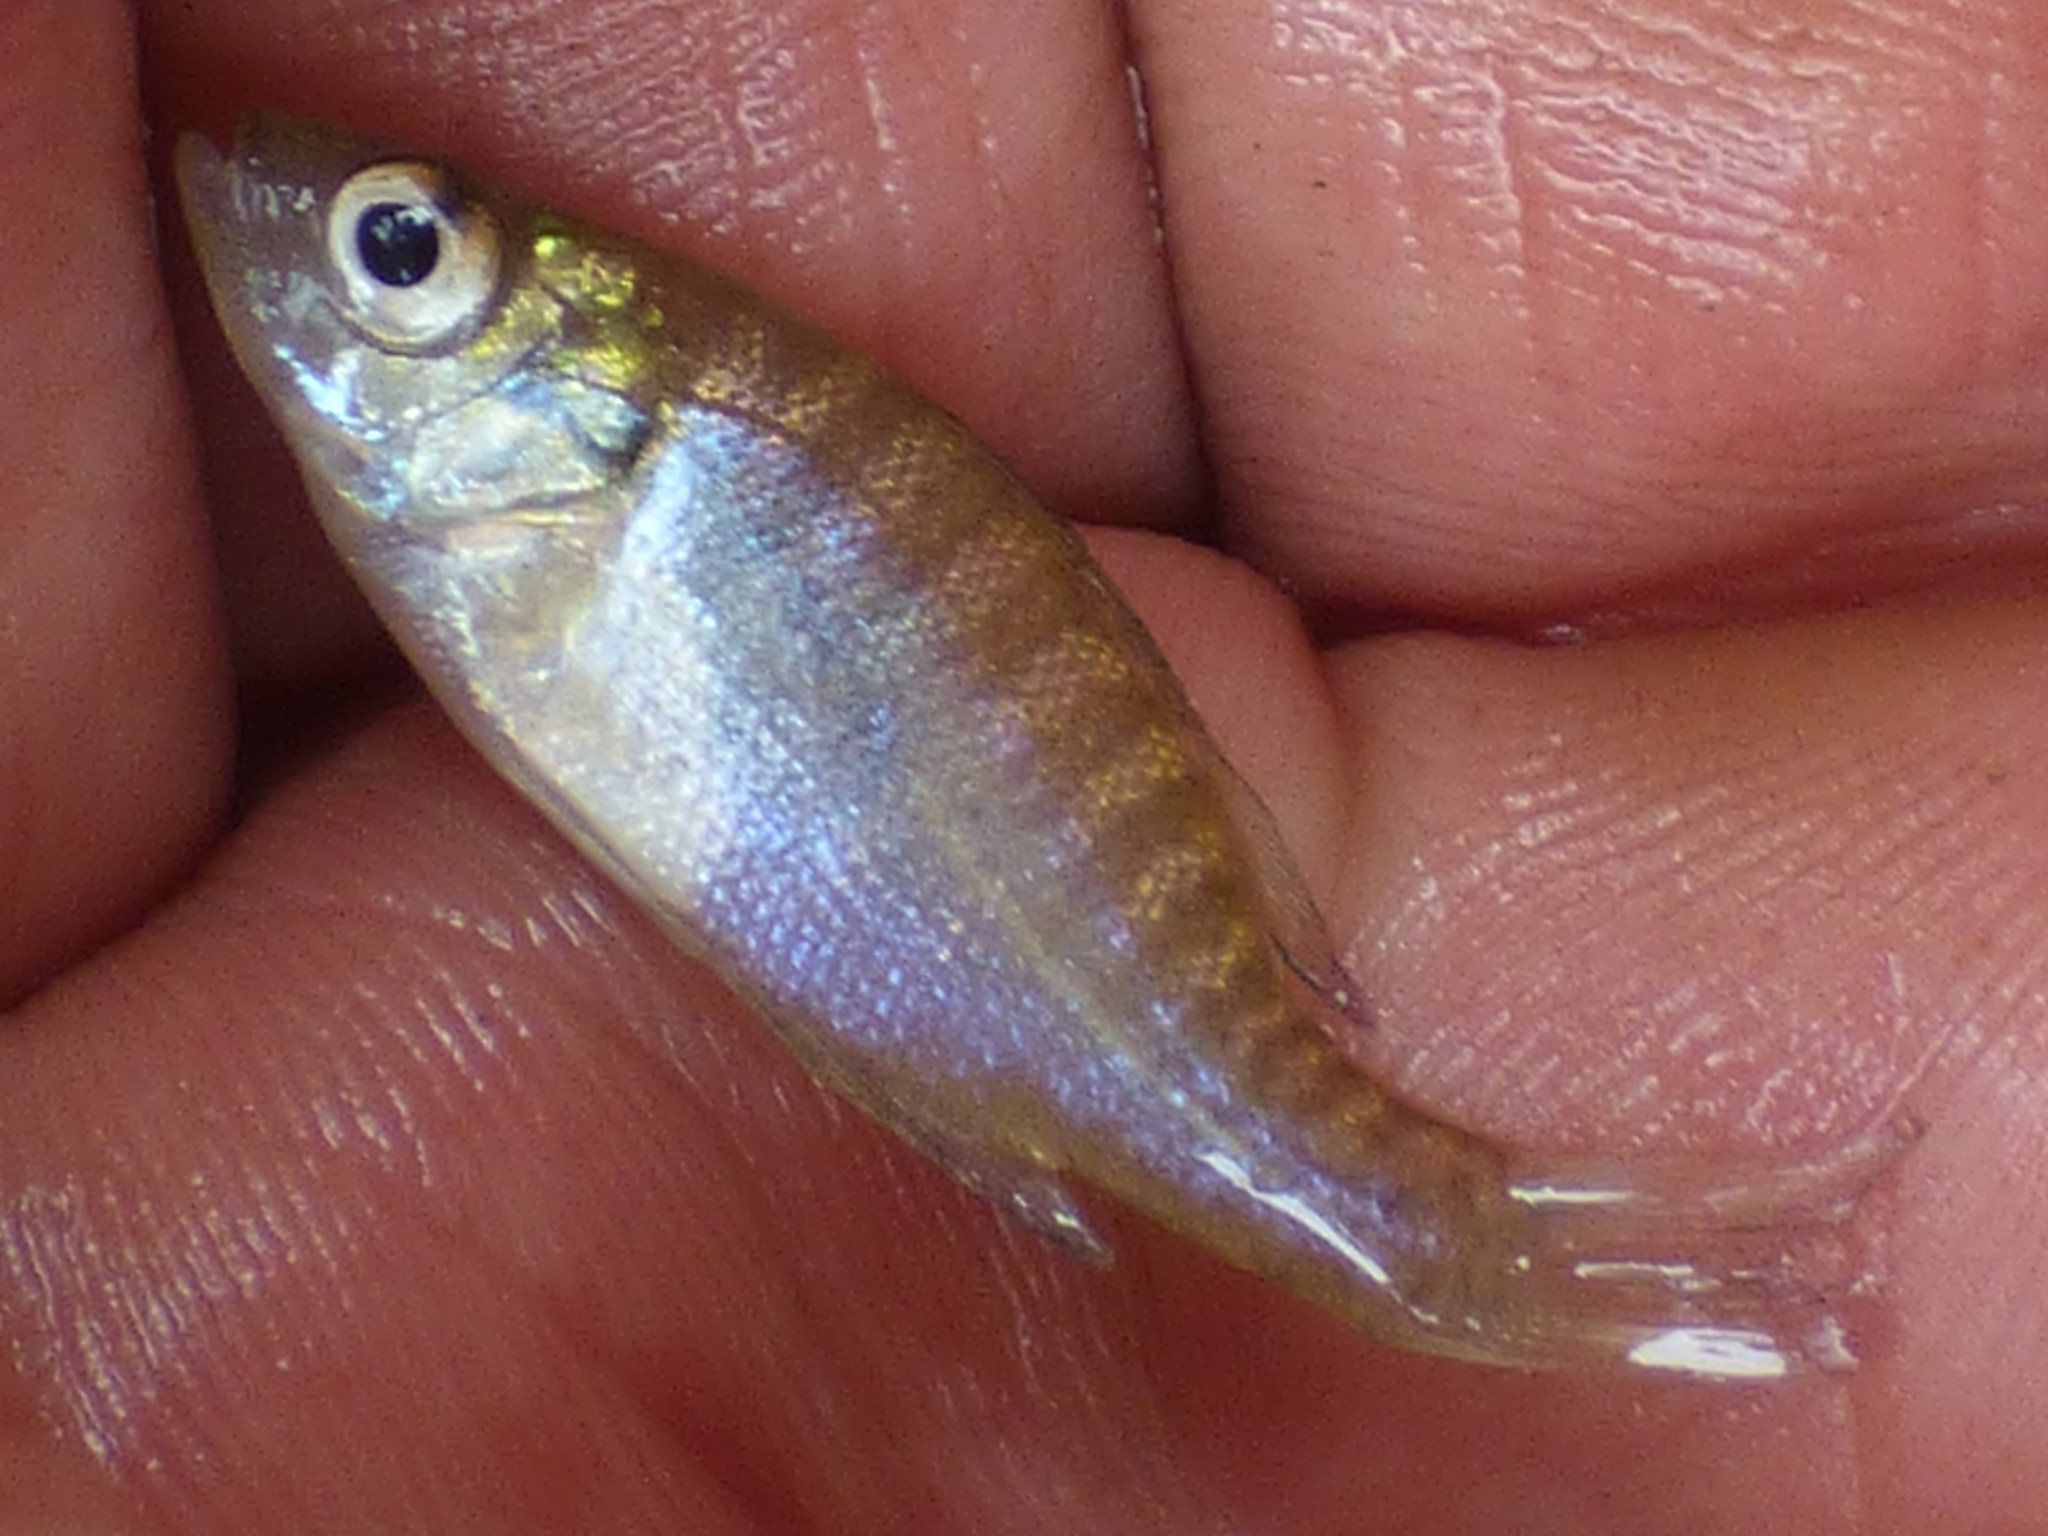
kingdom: Animalia
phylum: Chordata
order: Perciformes
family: Centrarchidae
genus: Lepomis
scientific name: Lepomis macrochirus
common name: Bluegill
